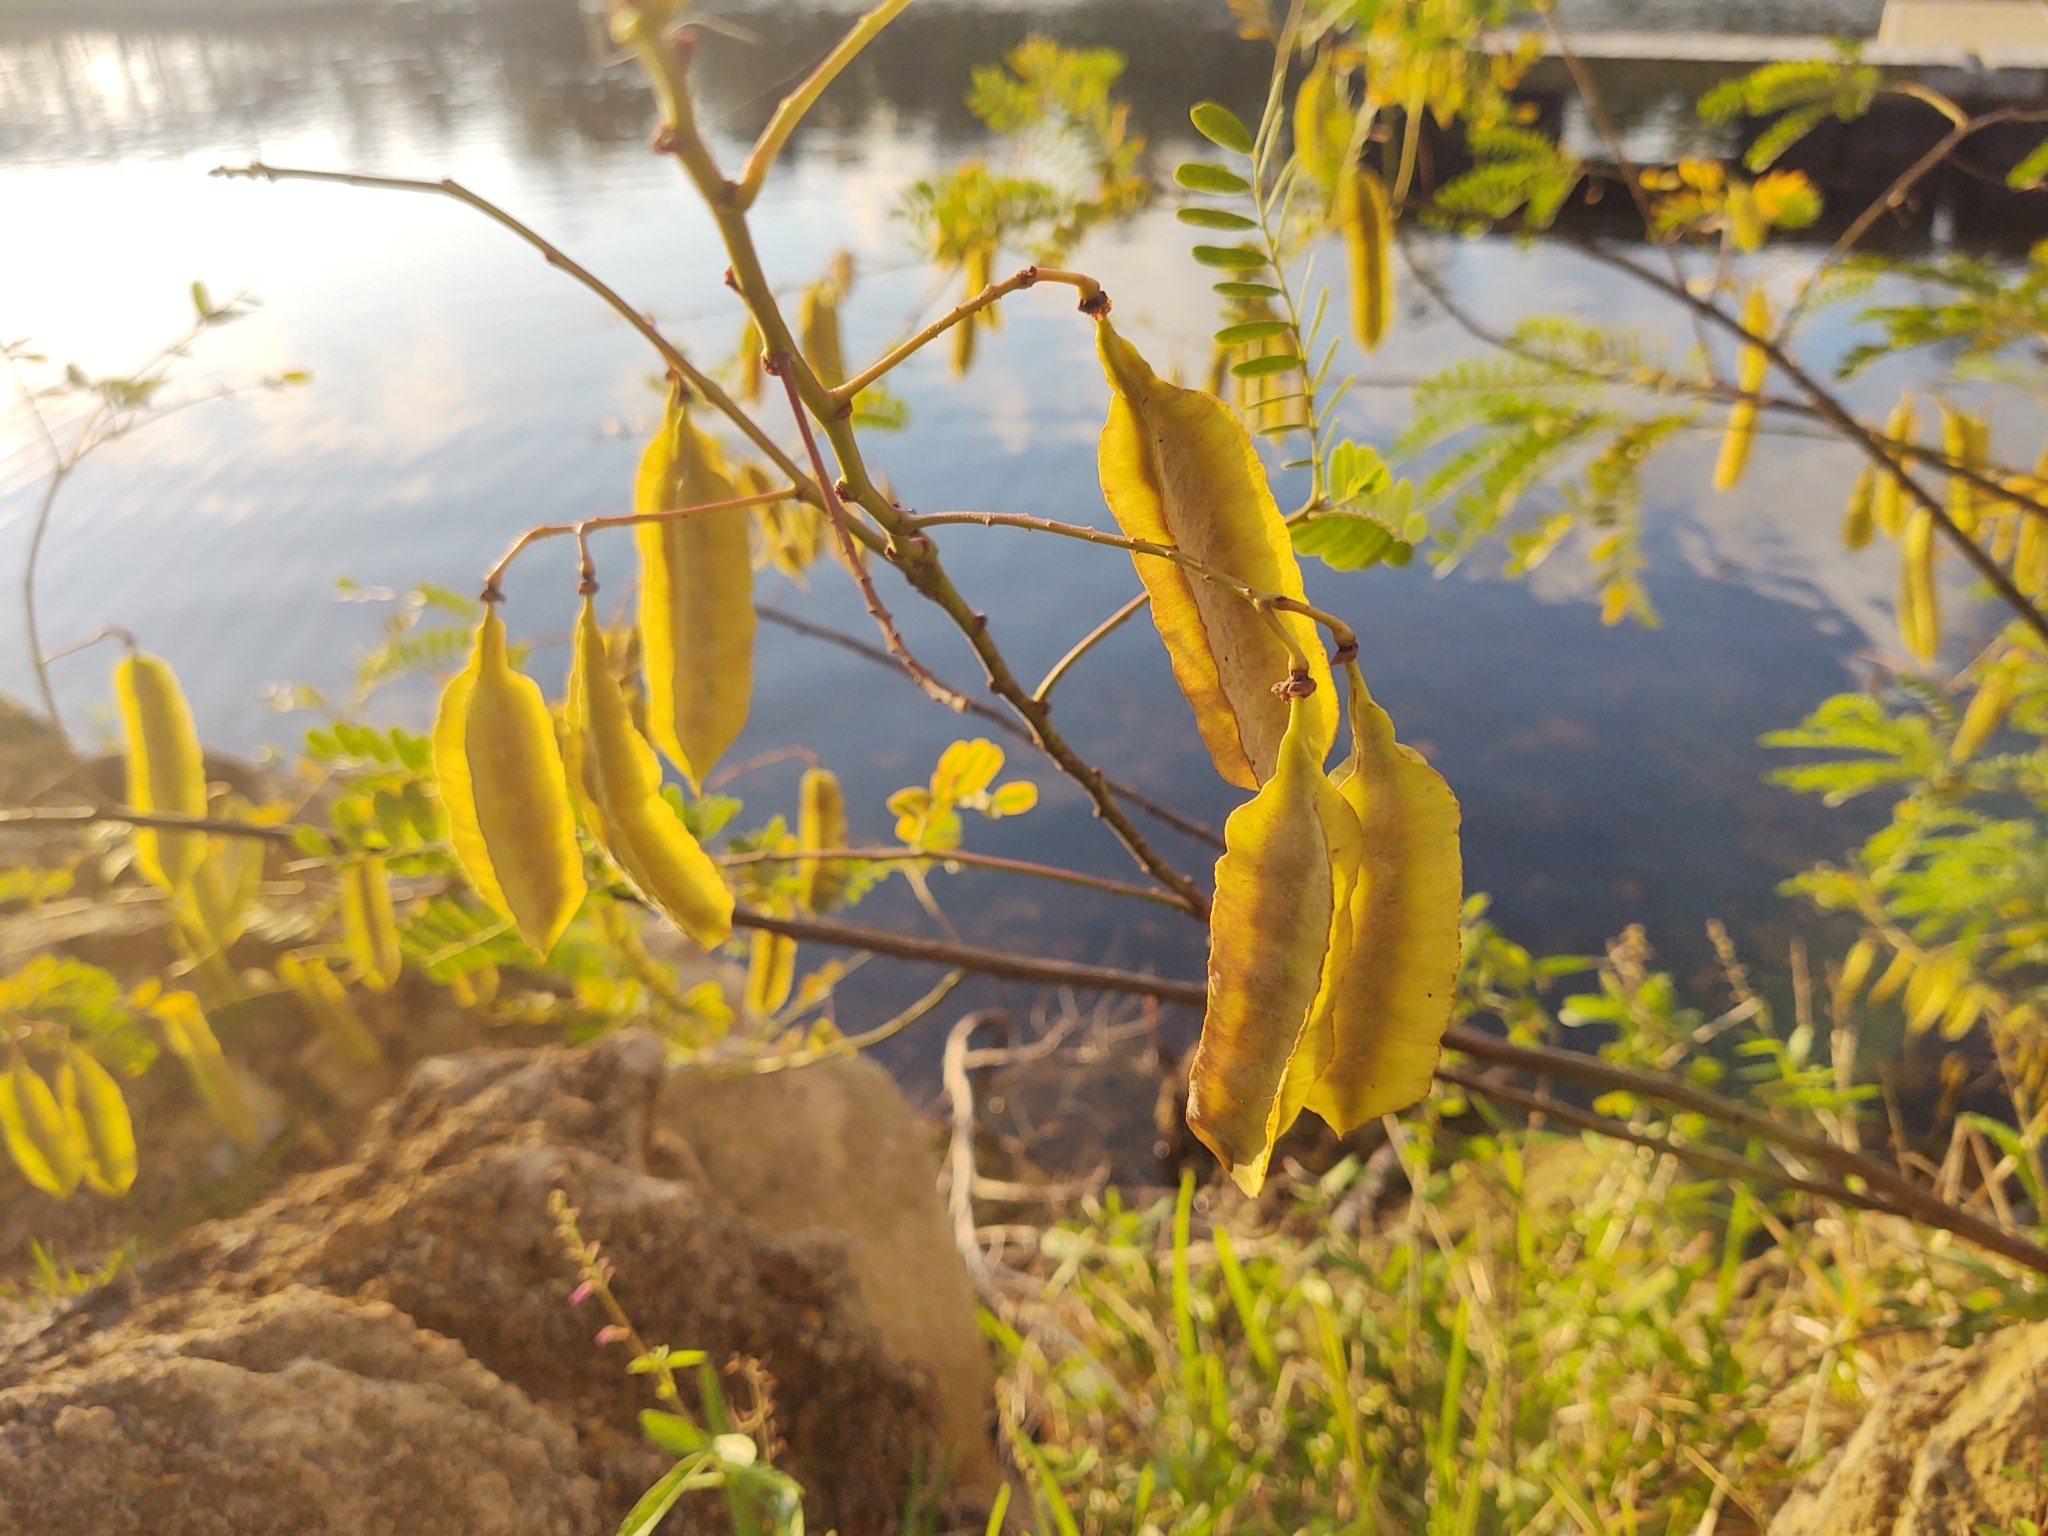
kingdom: Plantae
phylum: Tracheophyta
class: Magnoliopsida
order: Fabales
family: Fabaceae
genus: Sesbania
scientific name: Sesbania punicea
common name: Rattlebox
